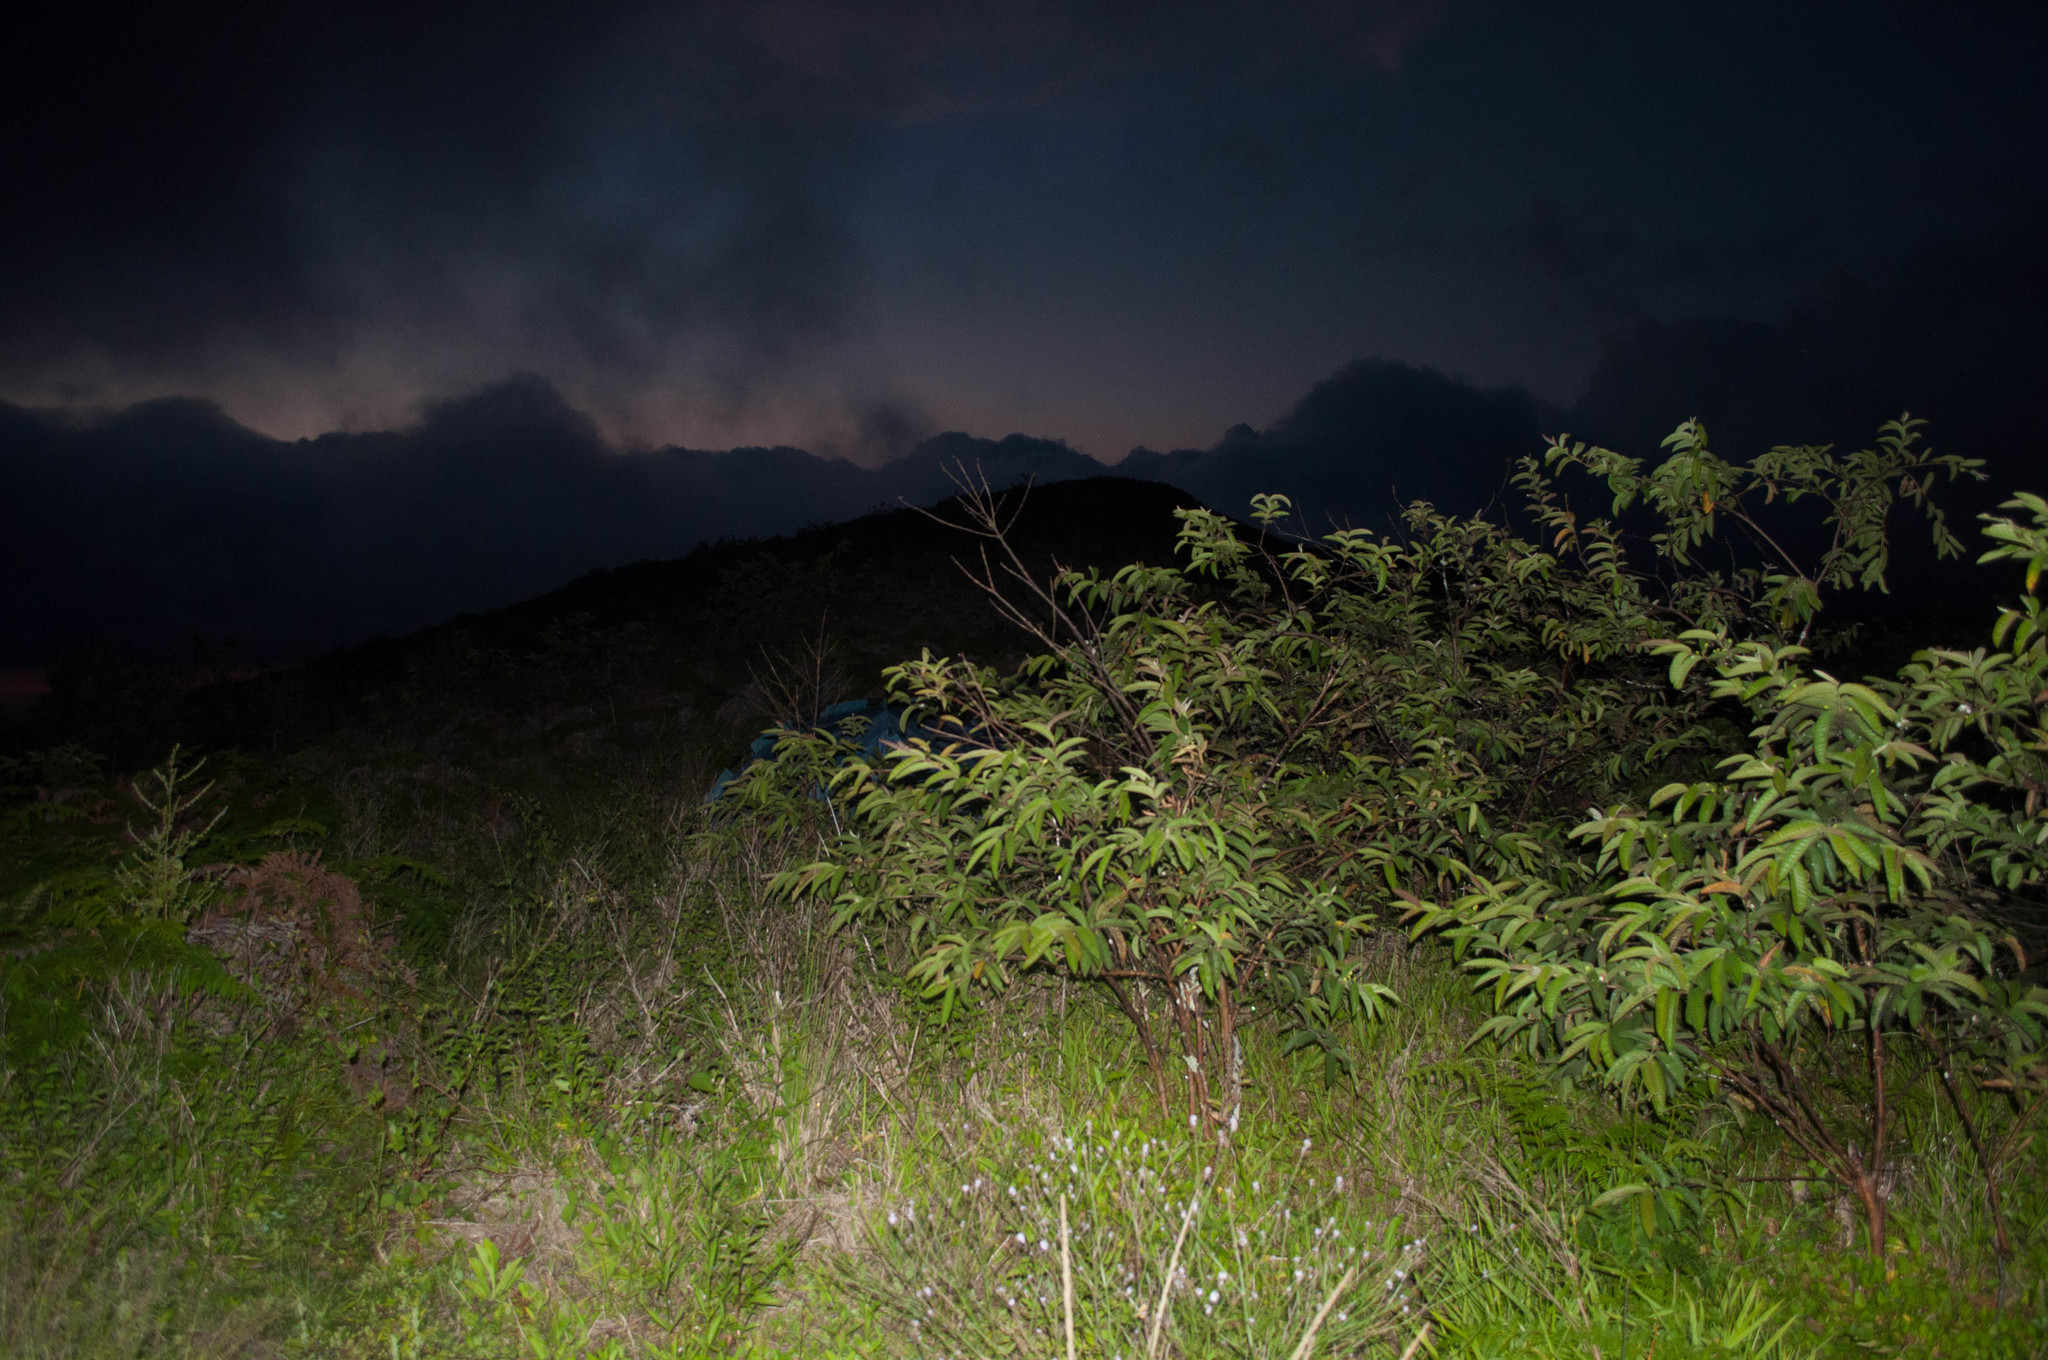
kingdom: Plantae
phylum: Tracheophyta
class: Magnoliopsida
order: Myrtales
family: Myrtaceae
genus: Psidium
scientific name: Psidium guajava
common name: Guava
